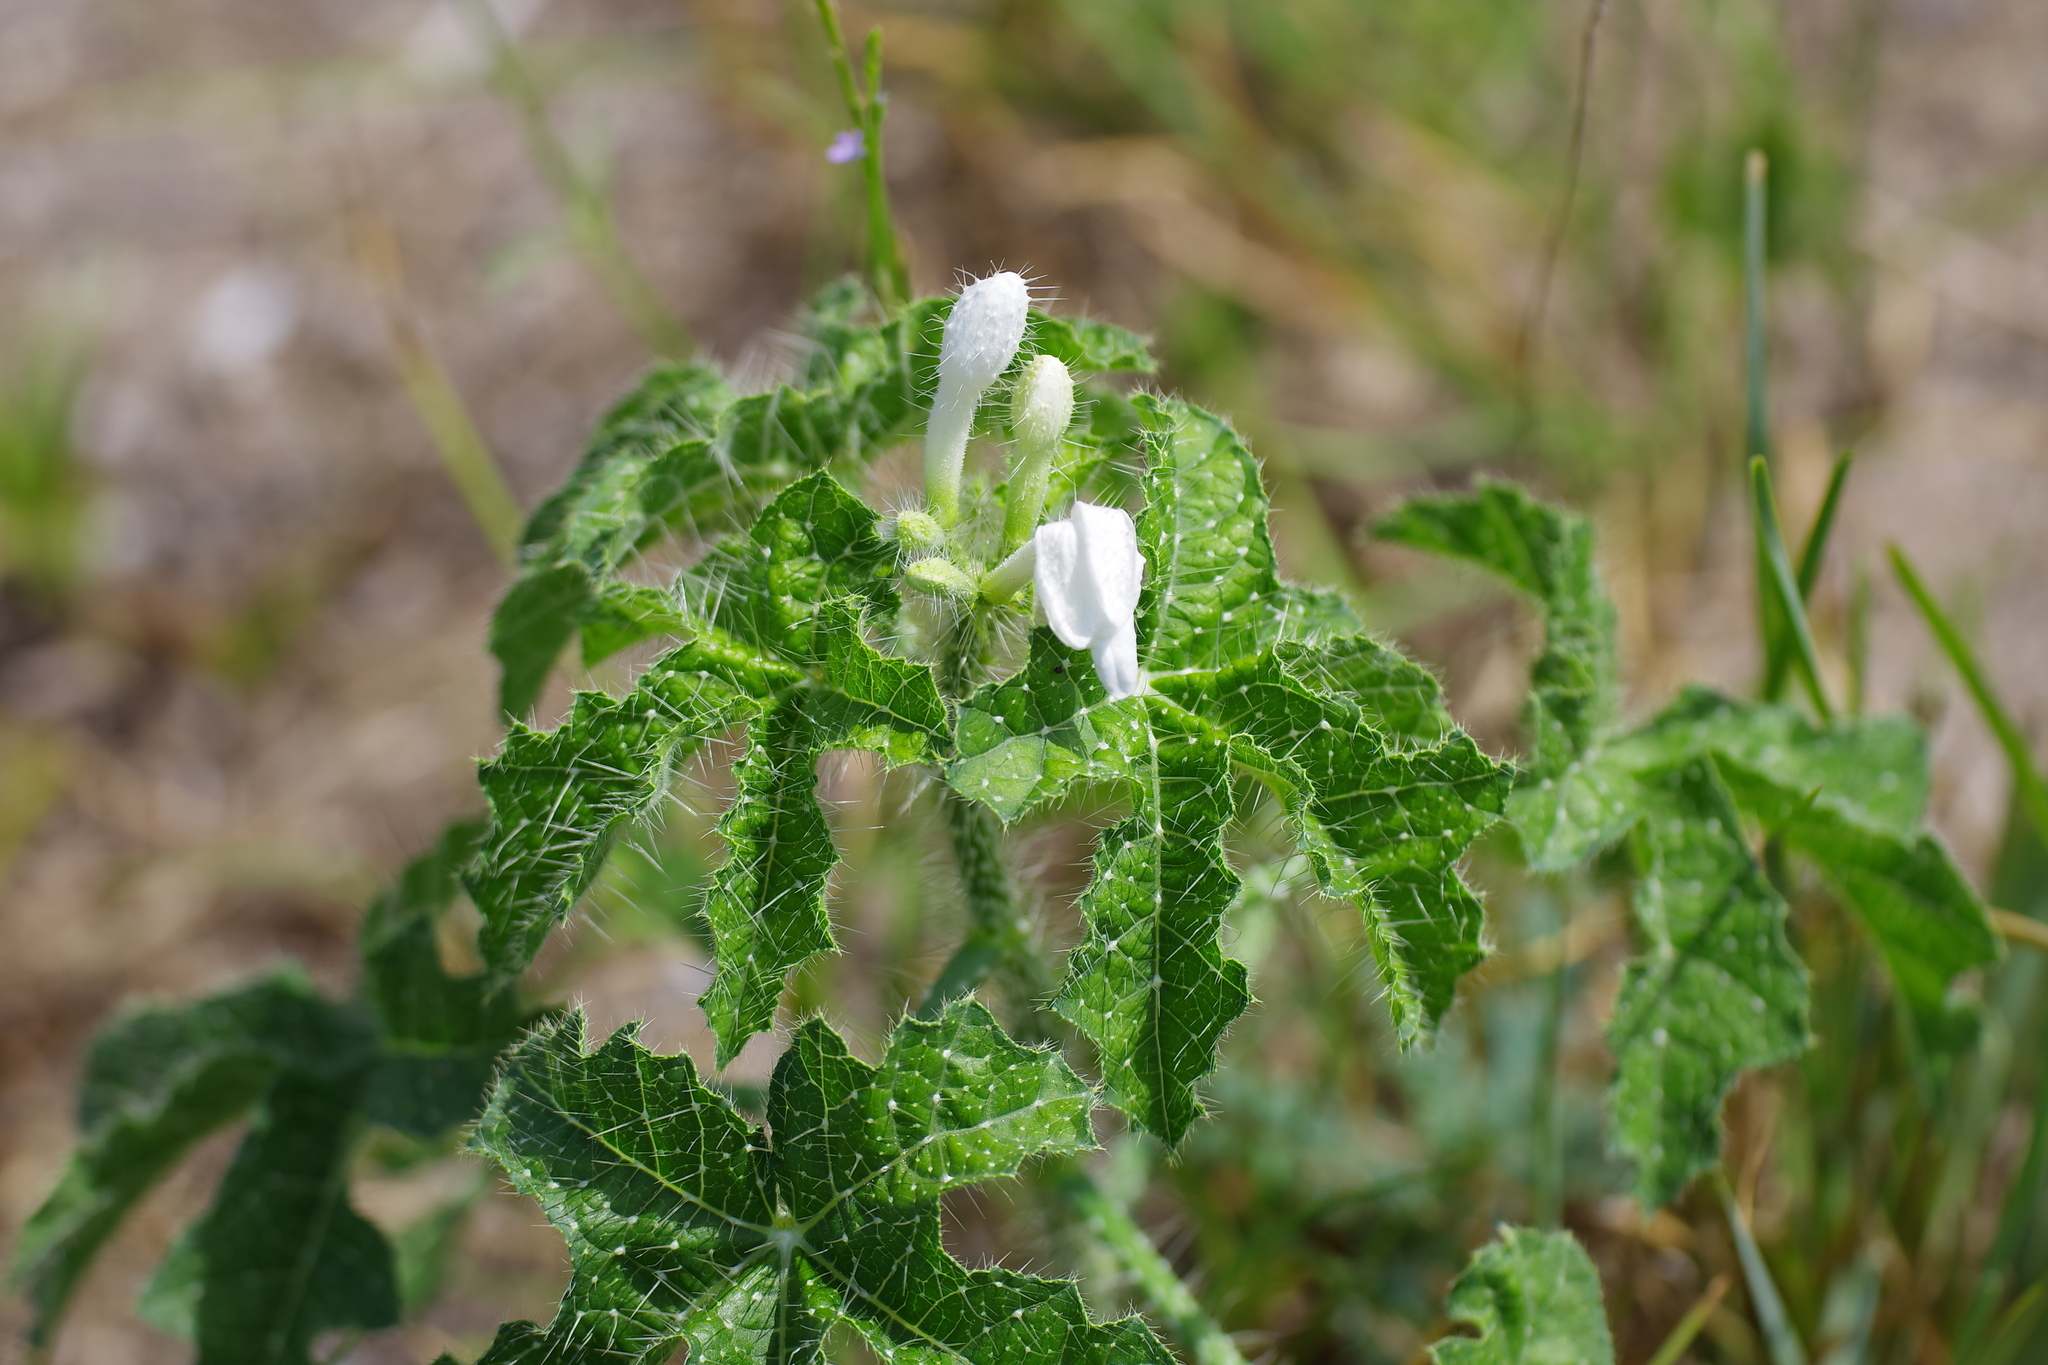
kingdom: Plantae
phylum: Tracheophyta
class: Magnoliopsida
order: Malpighiales
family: Euphorbiaceae
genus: Cnidoscolus
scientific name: Cnidoscolus texanus
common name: Texas bull-nettle
